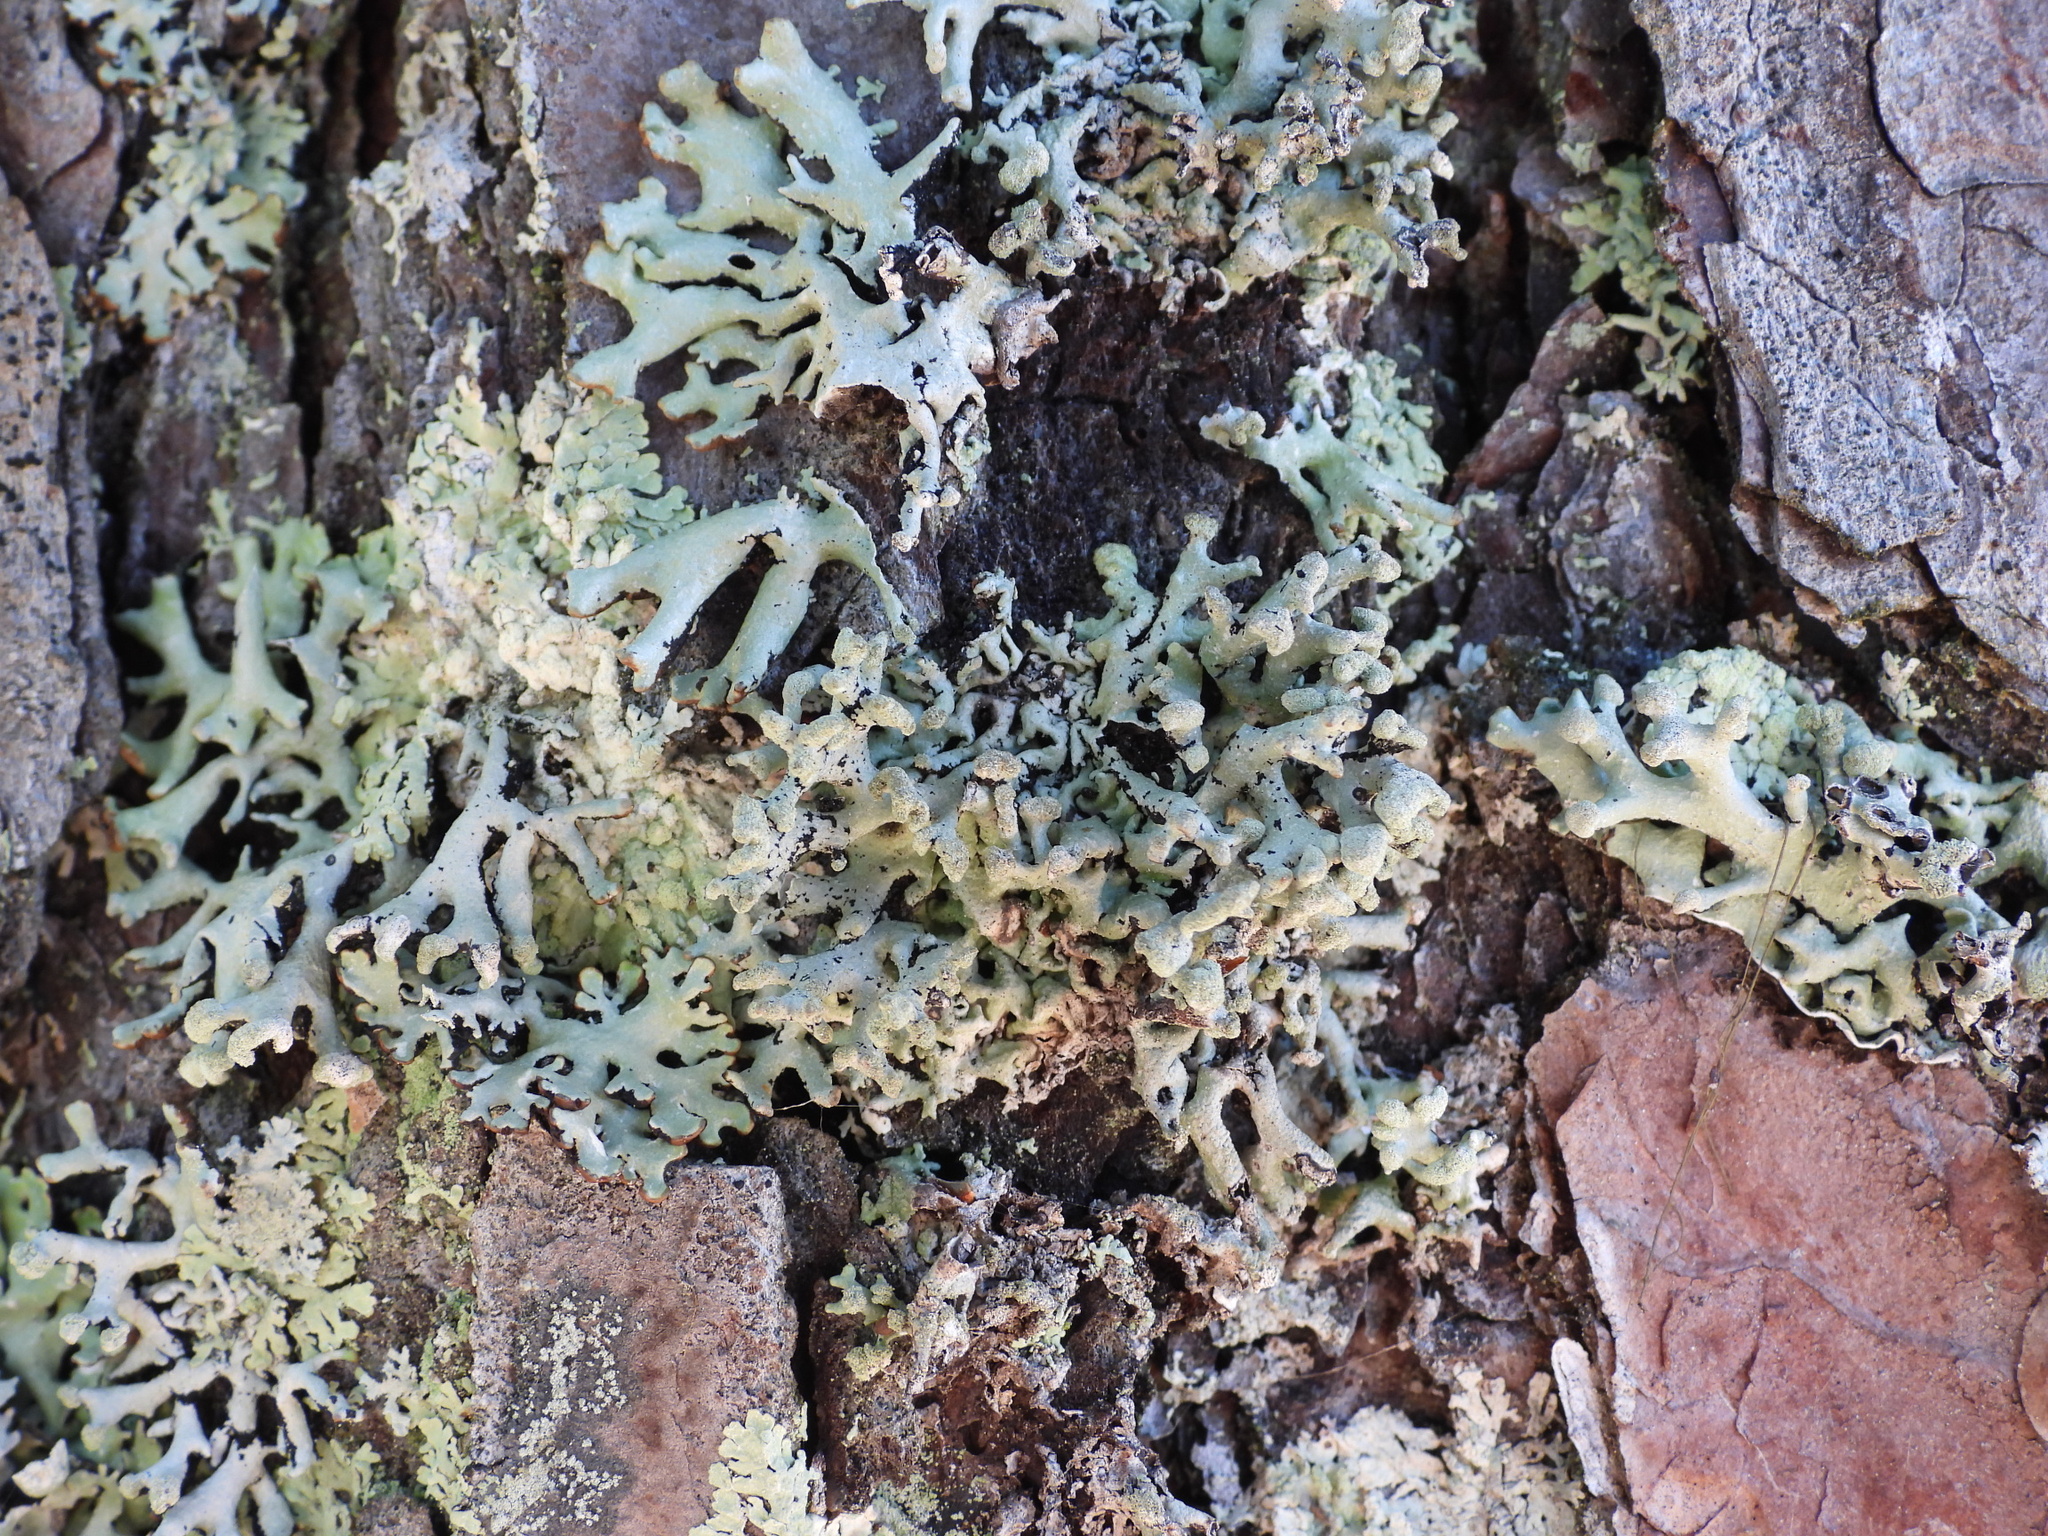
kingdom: Fungi
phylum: Ascomycota
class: Lecanoromycetes
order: Lecanorales
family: Parmeliaceae
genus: Hypogymnia
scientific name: Hypogymnia tubulosa
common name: Powder-headed tube lichen
